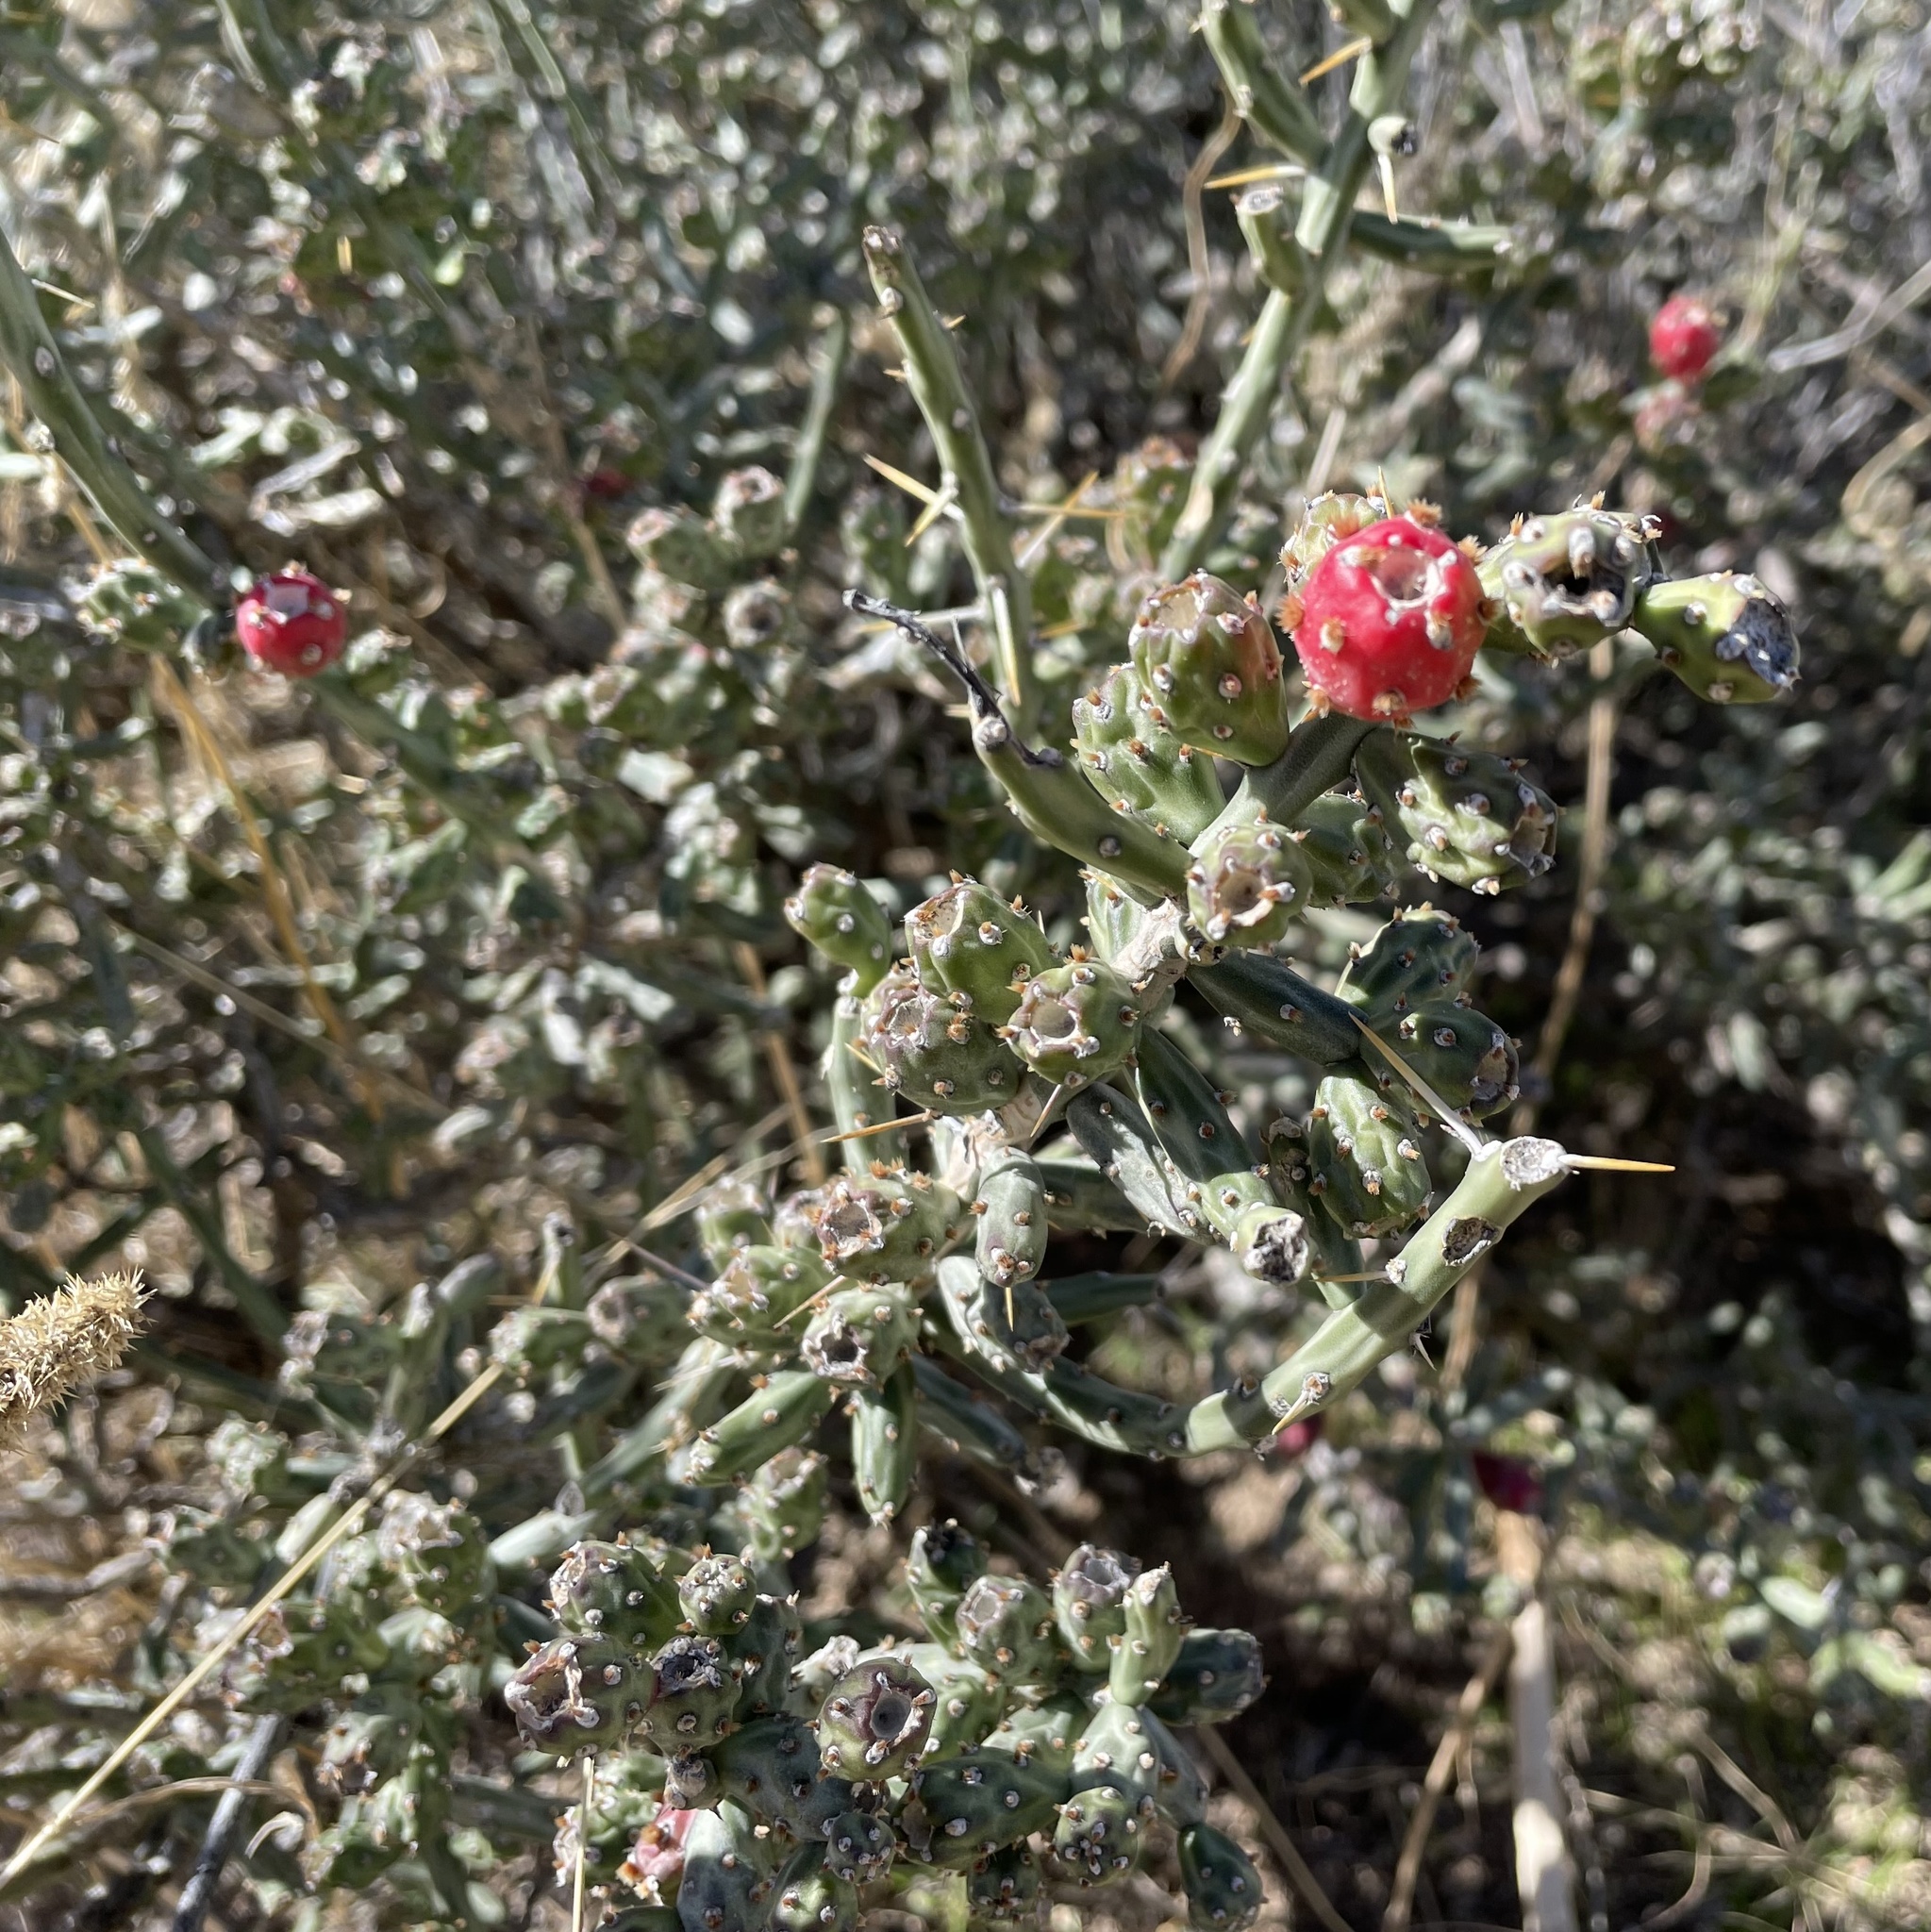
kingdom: Plantae
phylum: Tracheophyta
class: Magnoliopsida
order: Caryophyllales
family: Cactaceae
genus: Cylindropuntia
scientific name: Cylindropuntia leptocaulis
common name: Christmas cactus
